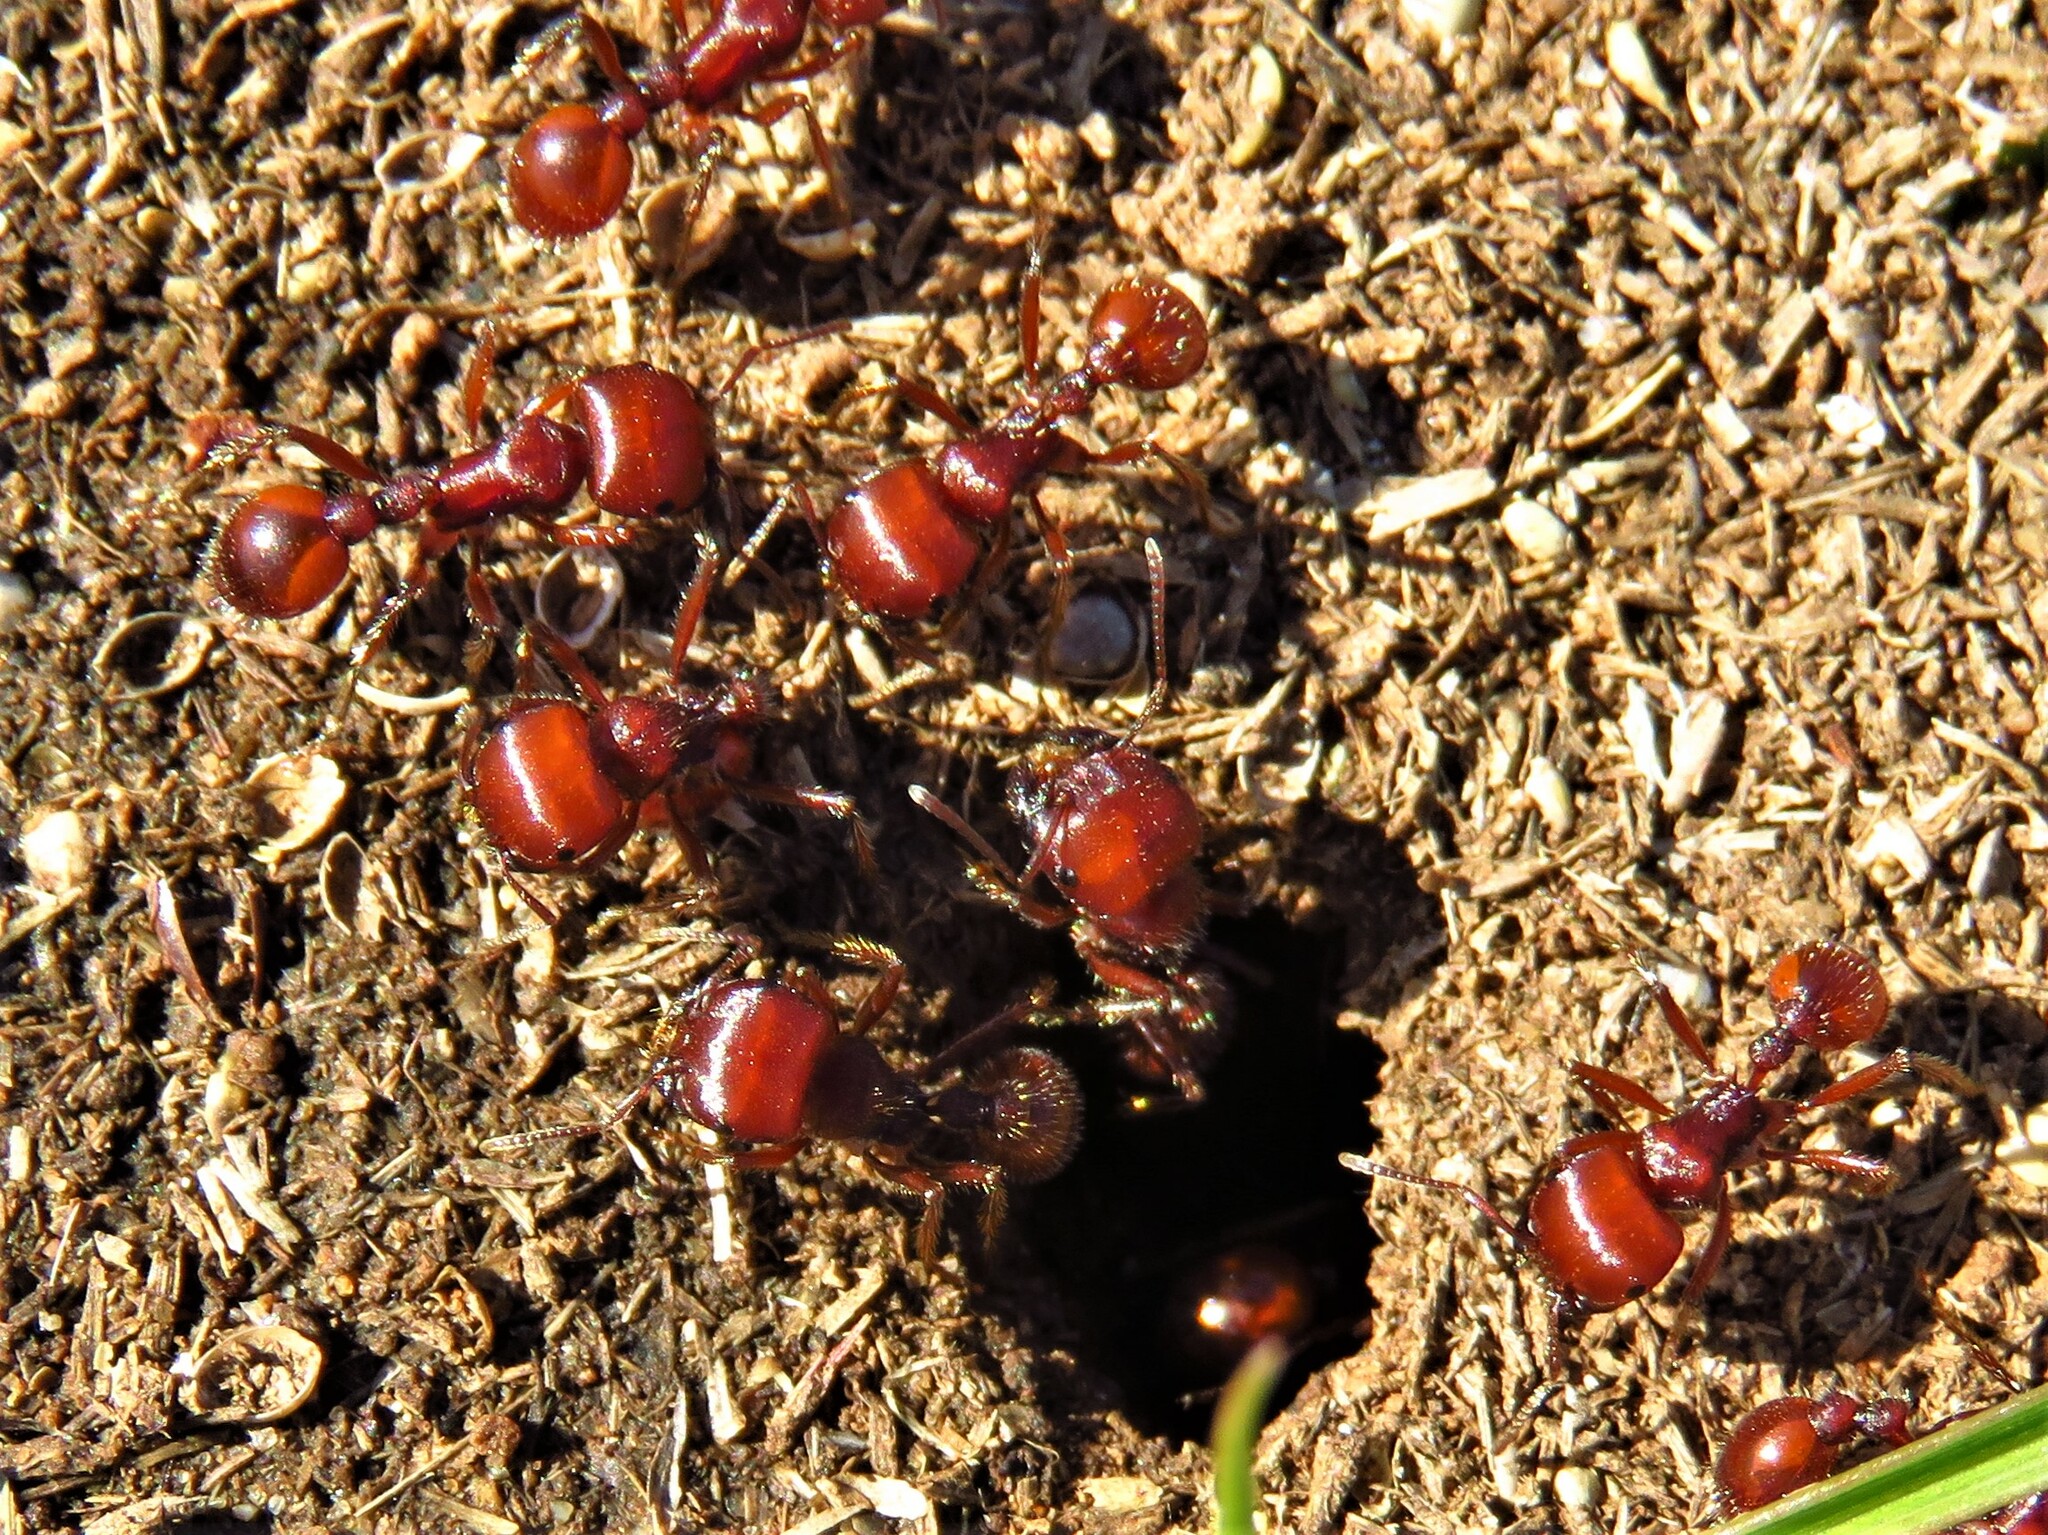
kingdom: Animalia
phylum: Arthropoda
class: Insecta
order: Hymenoptera
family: Formicidae
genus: Pogonomyrmex
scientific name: Pogonomyrmex barbatus
